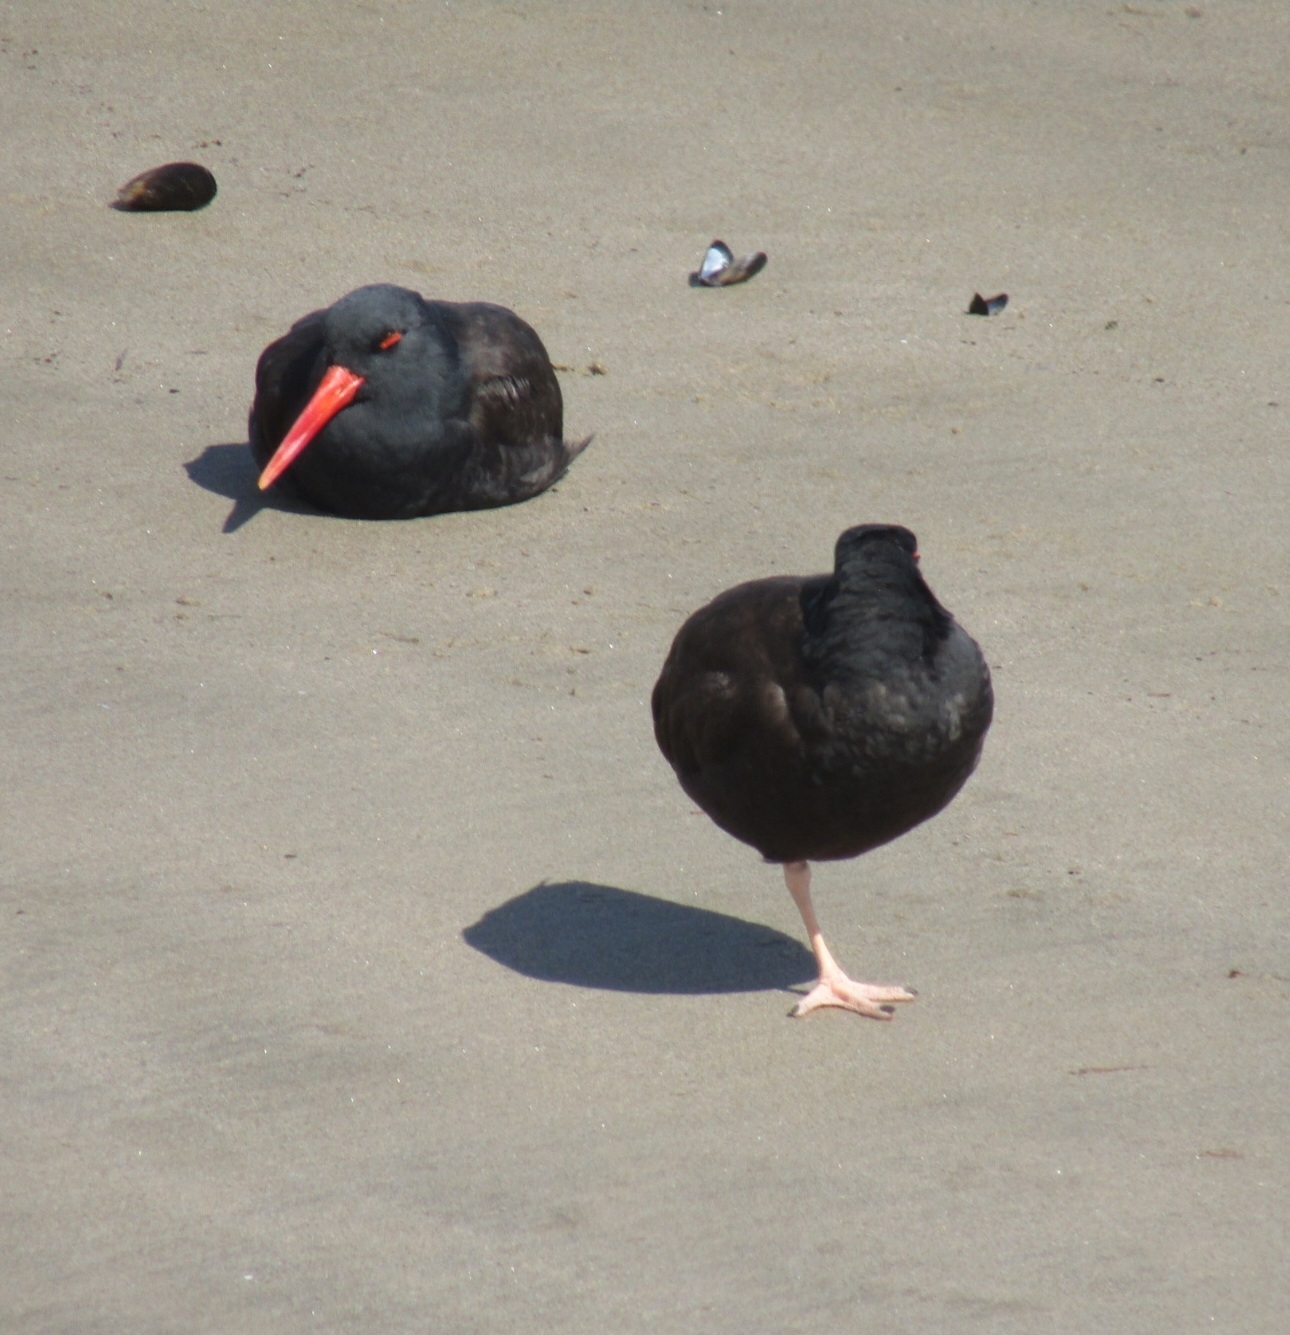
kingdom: Animalia
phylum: Chordata
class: Aves
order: Charadriiformes
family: Haematopodidae
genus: Haematopus
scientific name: Haematopus bachmani
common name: Black oystercatcher
